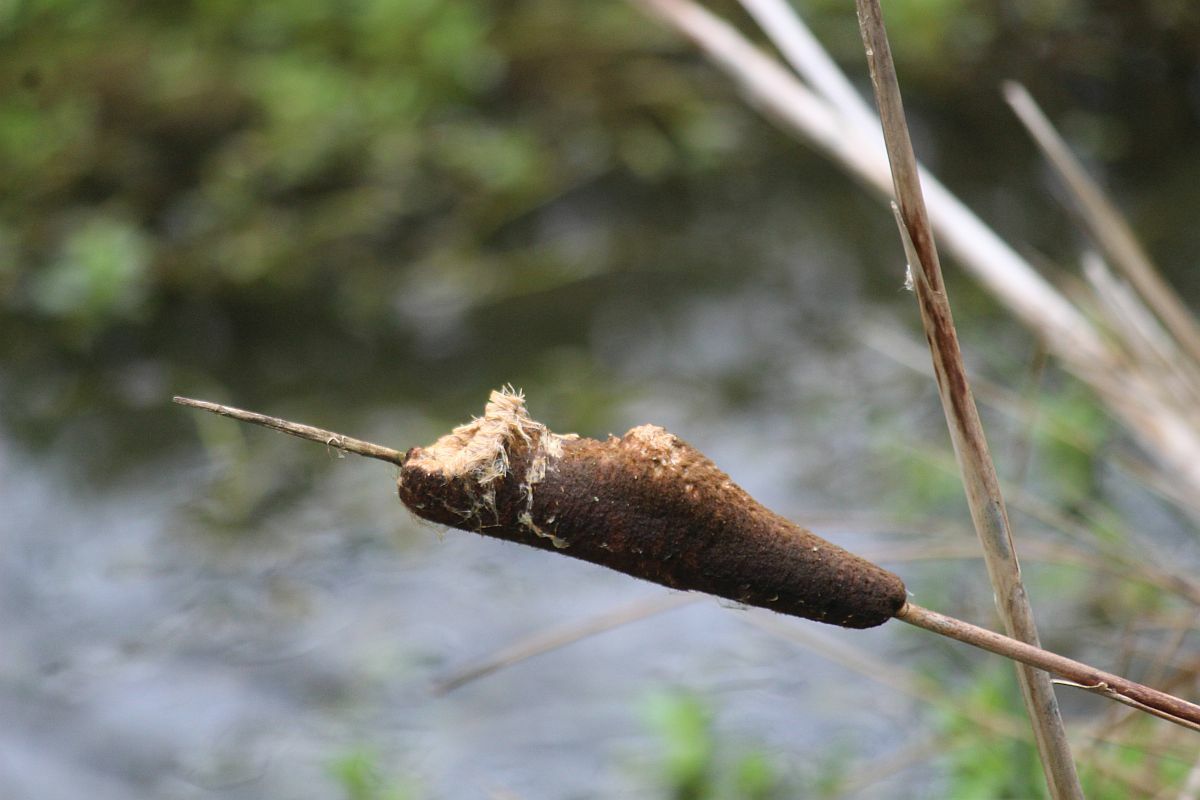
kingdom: Plantae
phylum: Tracheophyta
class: Liliopsida
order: Poales
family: Typhaceae
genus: Typha
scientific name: Typha latifolia
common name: Broadleaf cattail
